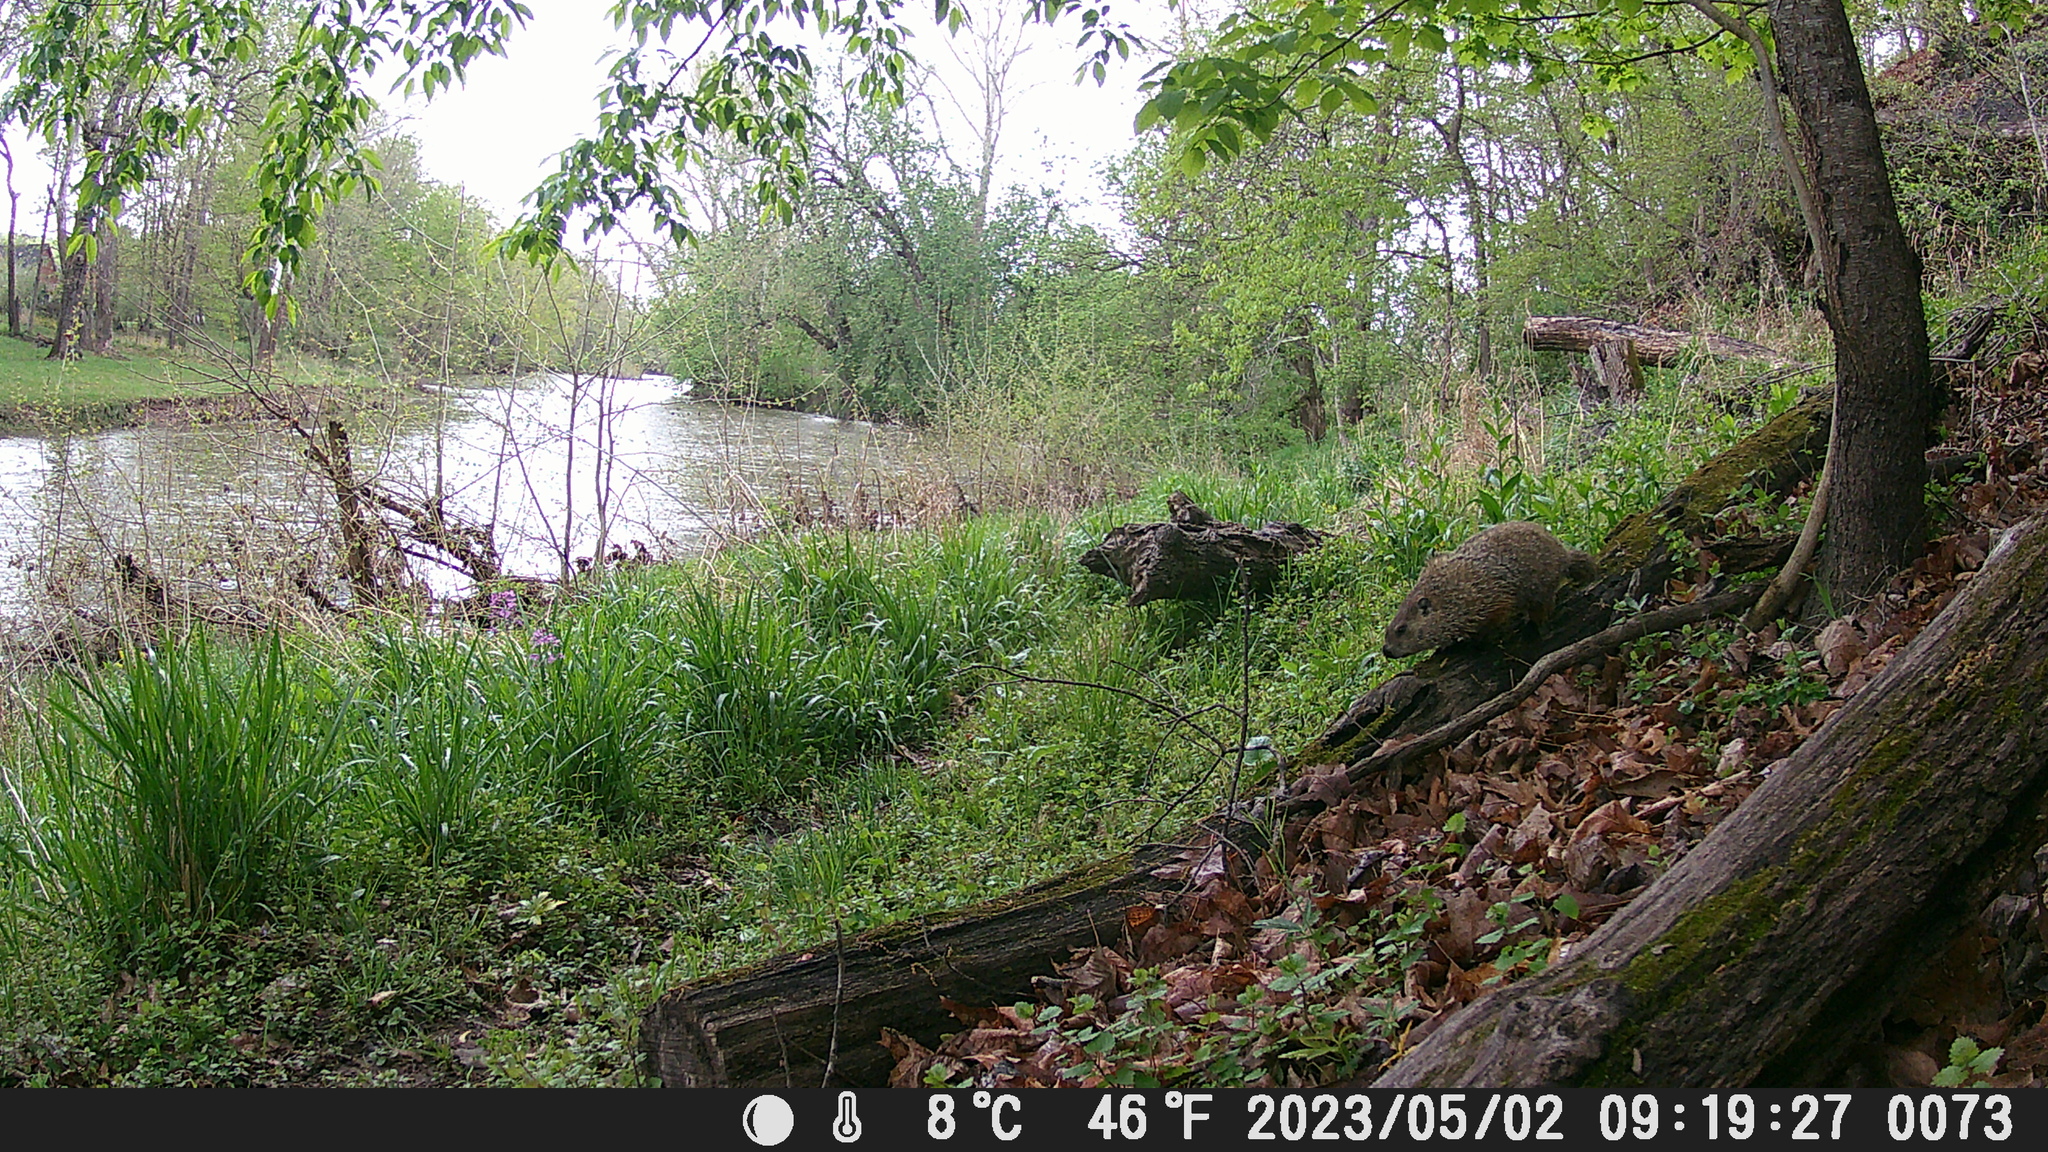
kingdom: Animalia
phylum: Chordata
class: Mammalia
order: Rodentia
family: Sciuridae
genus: Marmota
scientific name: Marmota monax
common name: Groundhog
